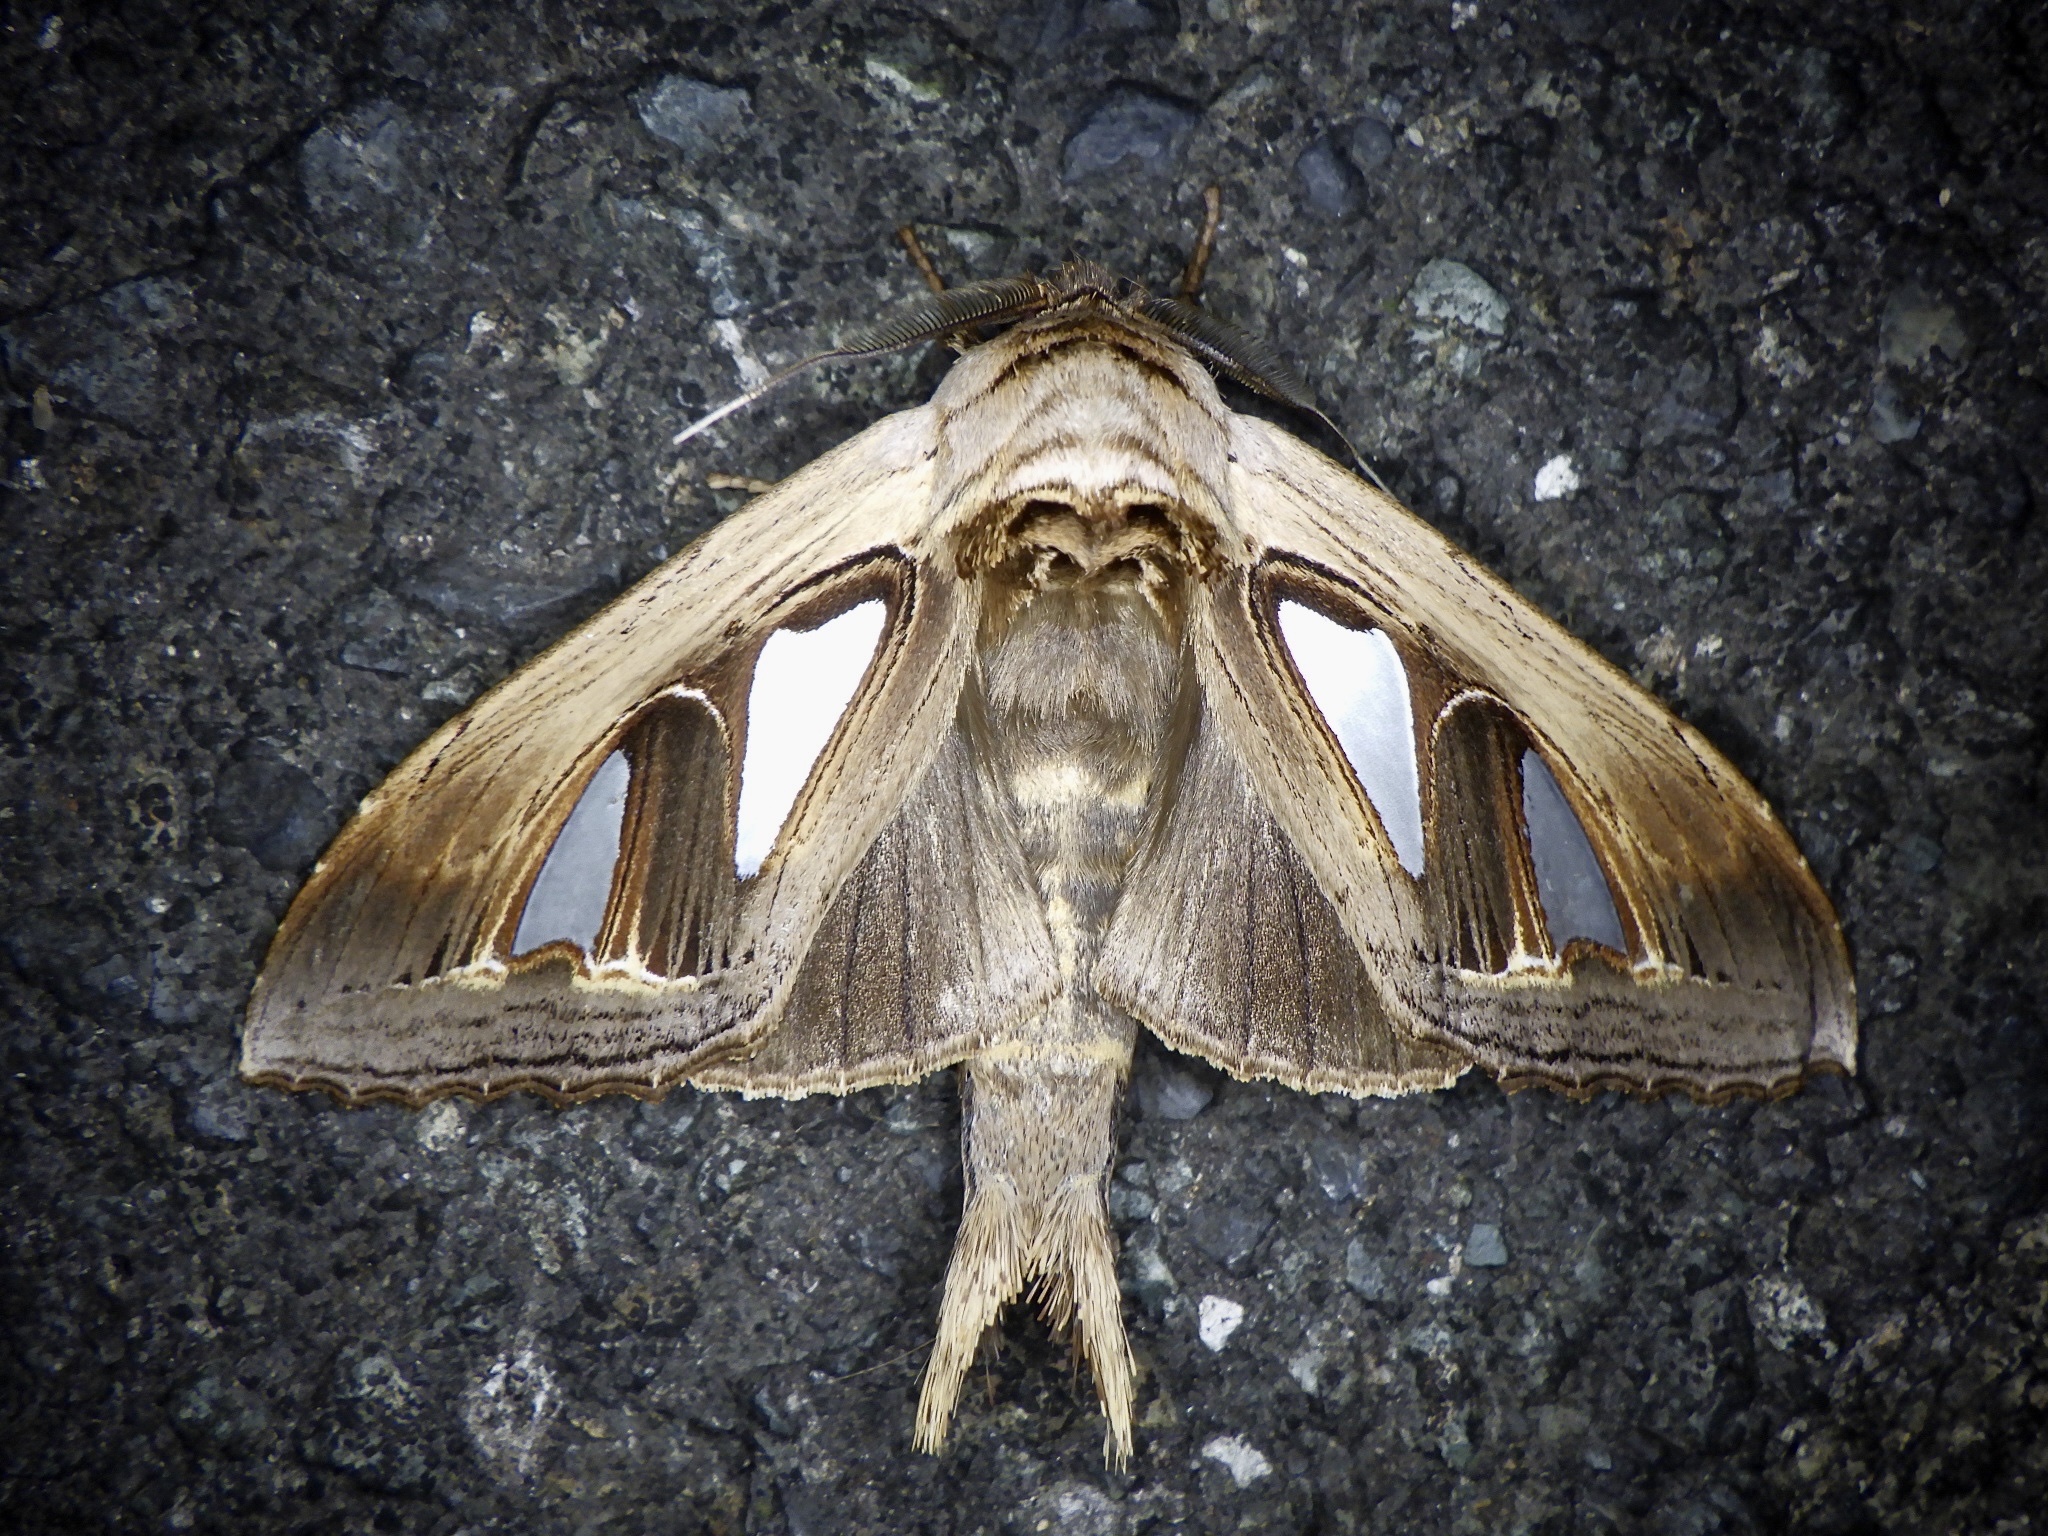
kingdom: Animalia
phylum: Arthropoda
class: Insecta
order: Lepidoptera
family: Notodontidae
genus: Tarsolepis
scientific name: Tarsolepis japonica
